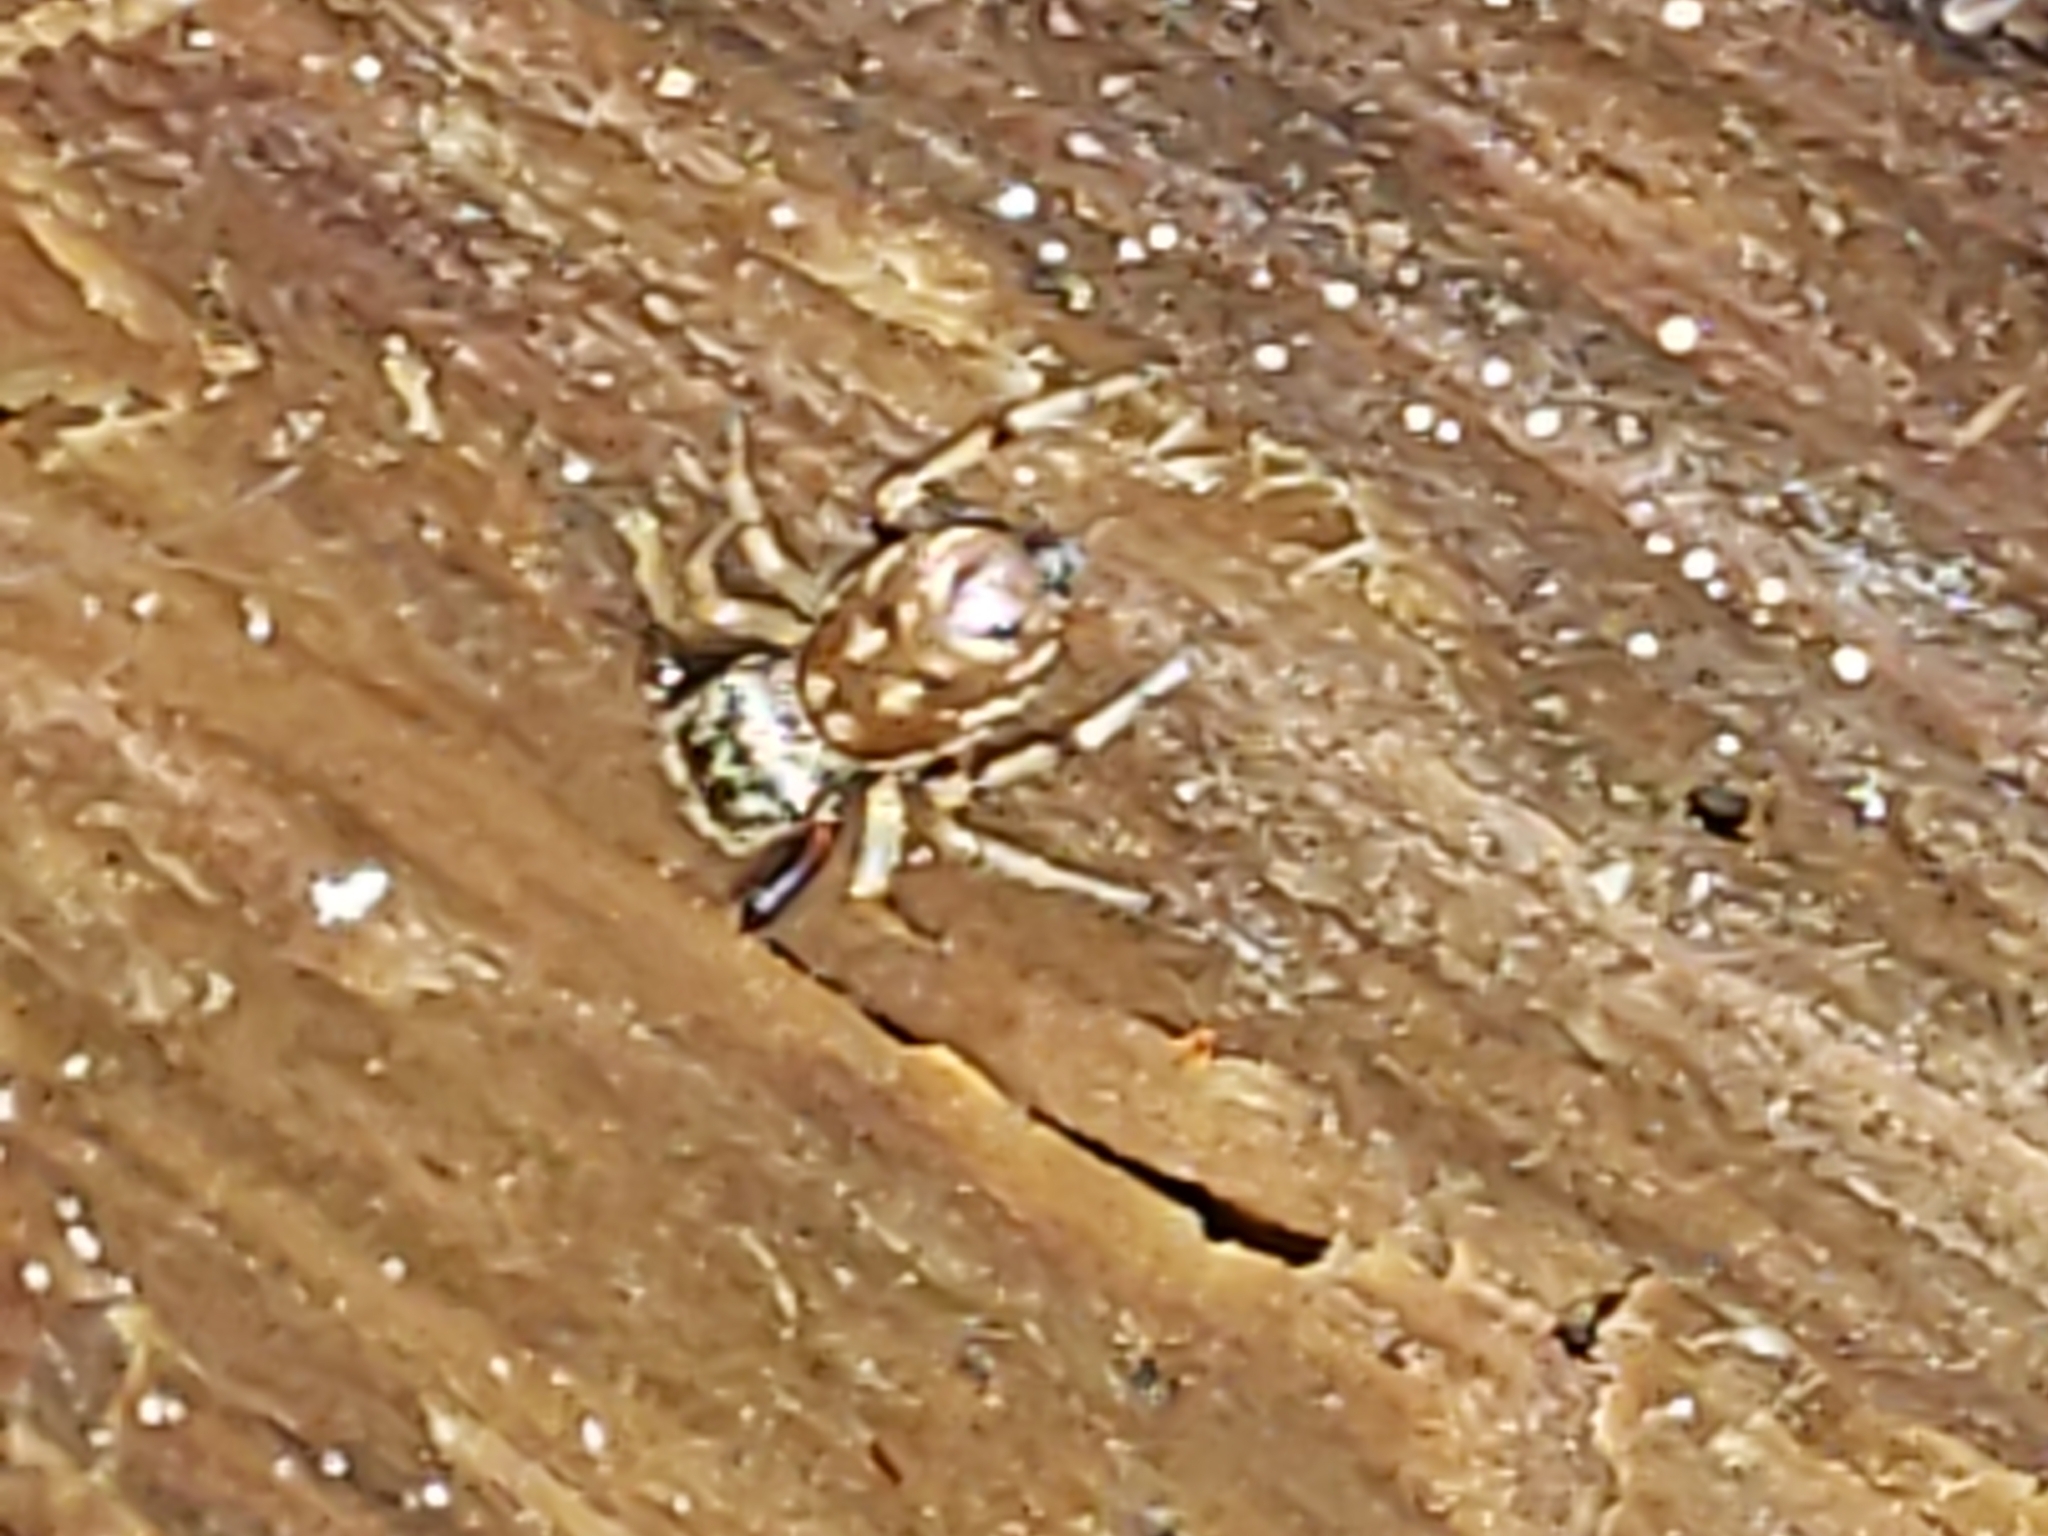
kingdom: Animalia
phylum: Arthropoda
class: Arachnida
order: Araneae
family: Salticidae
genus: Zygoballus
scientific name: Zygoballus rufipes
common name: Jumping spiders
